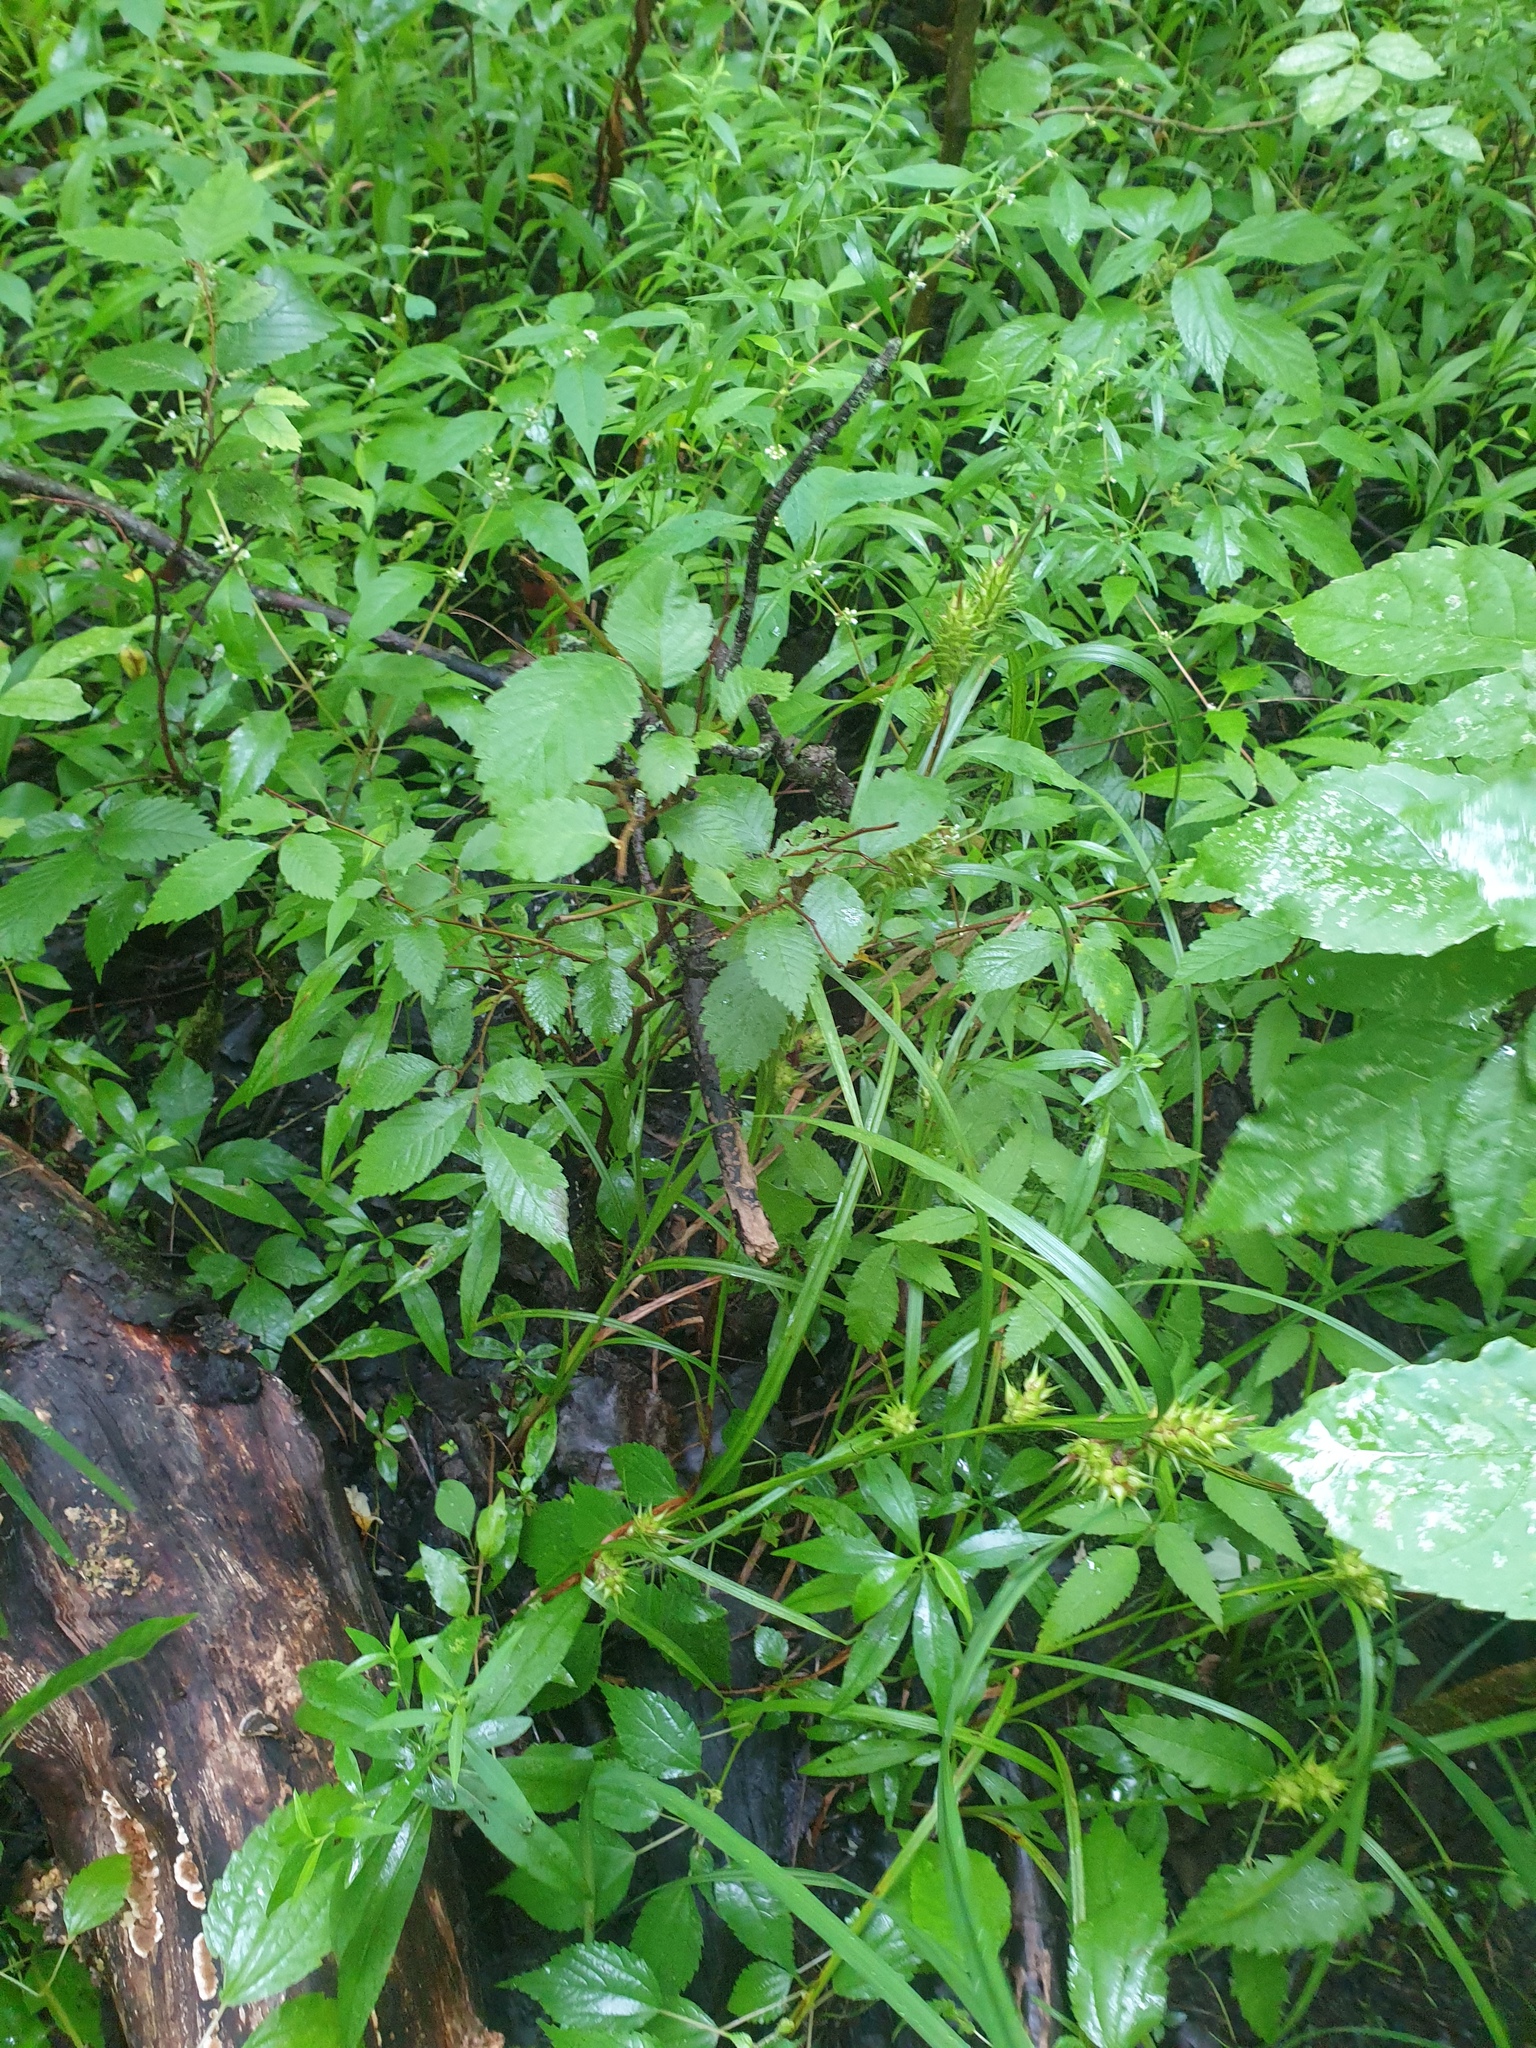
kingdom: Plantae
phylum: Tracheophyta
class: Liliopsida
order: Poales
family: Cyperaceae
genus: Carex
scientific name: Carex lupulina
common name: Hop sedge
